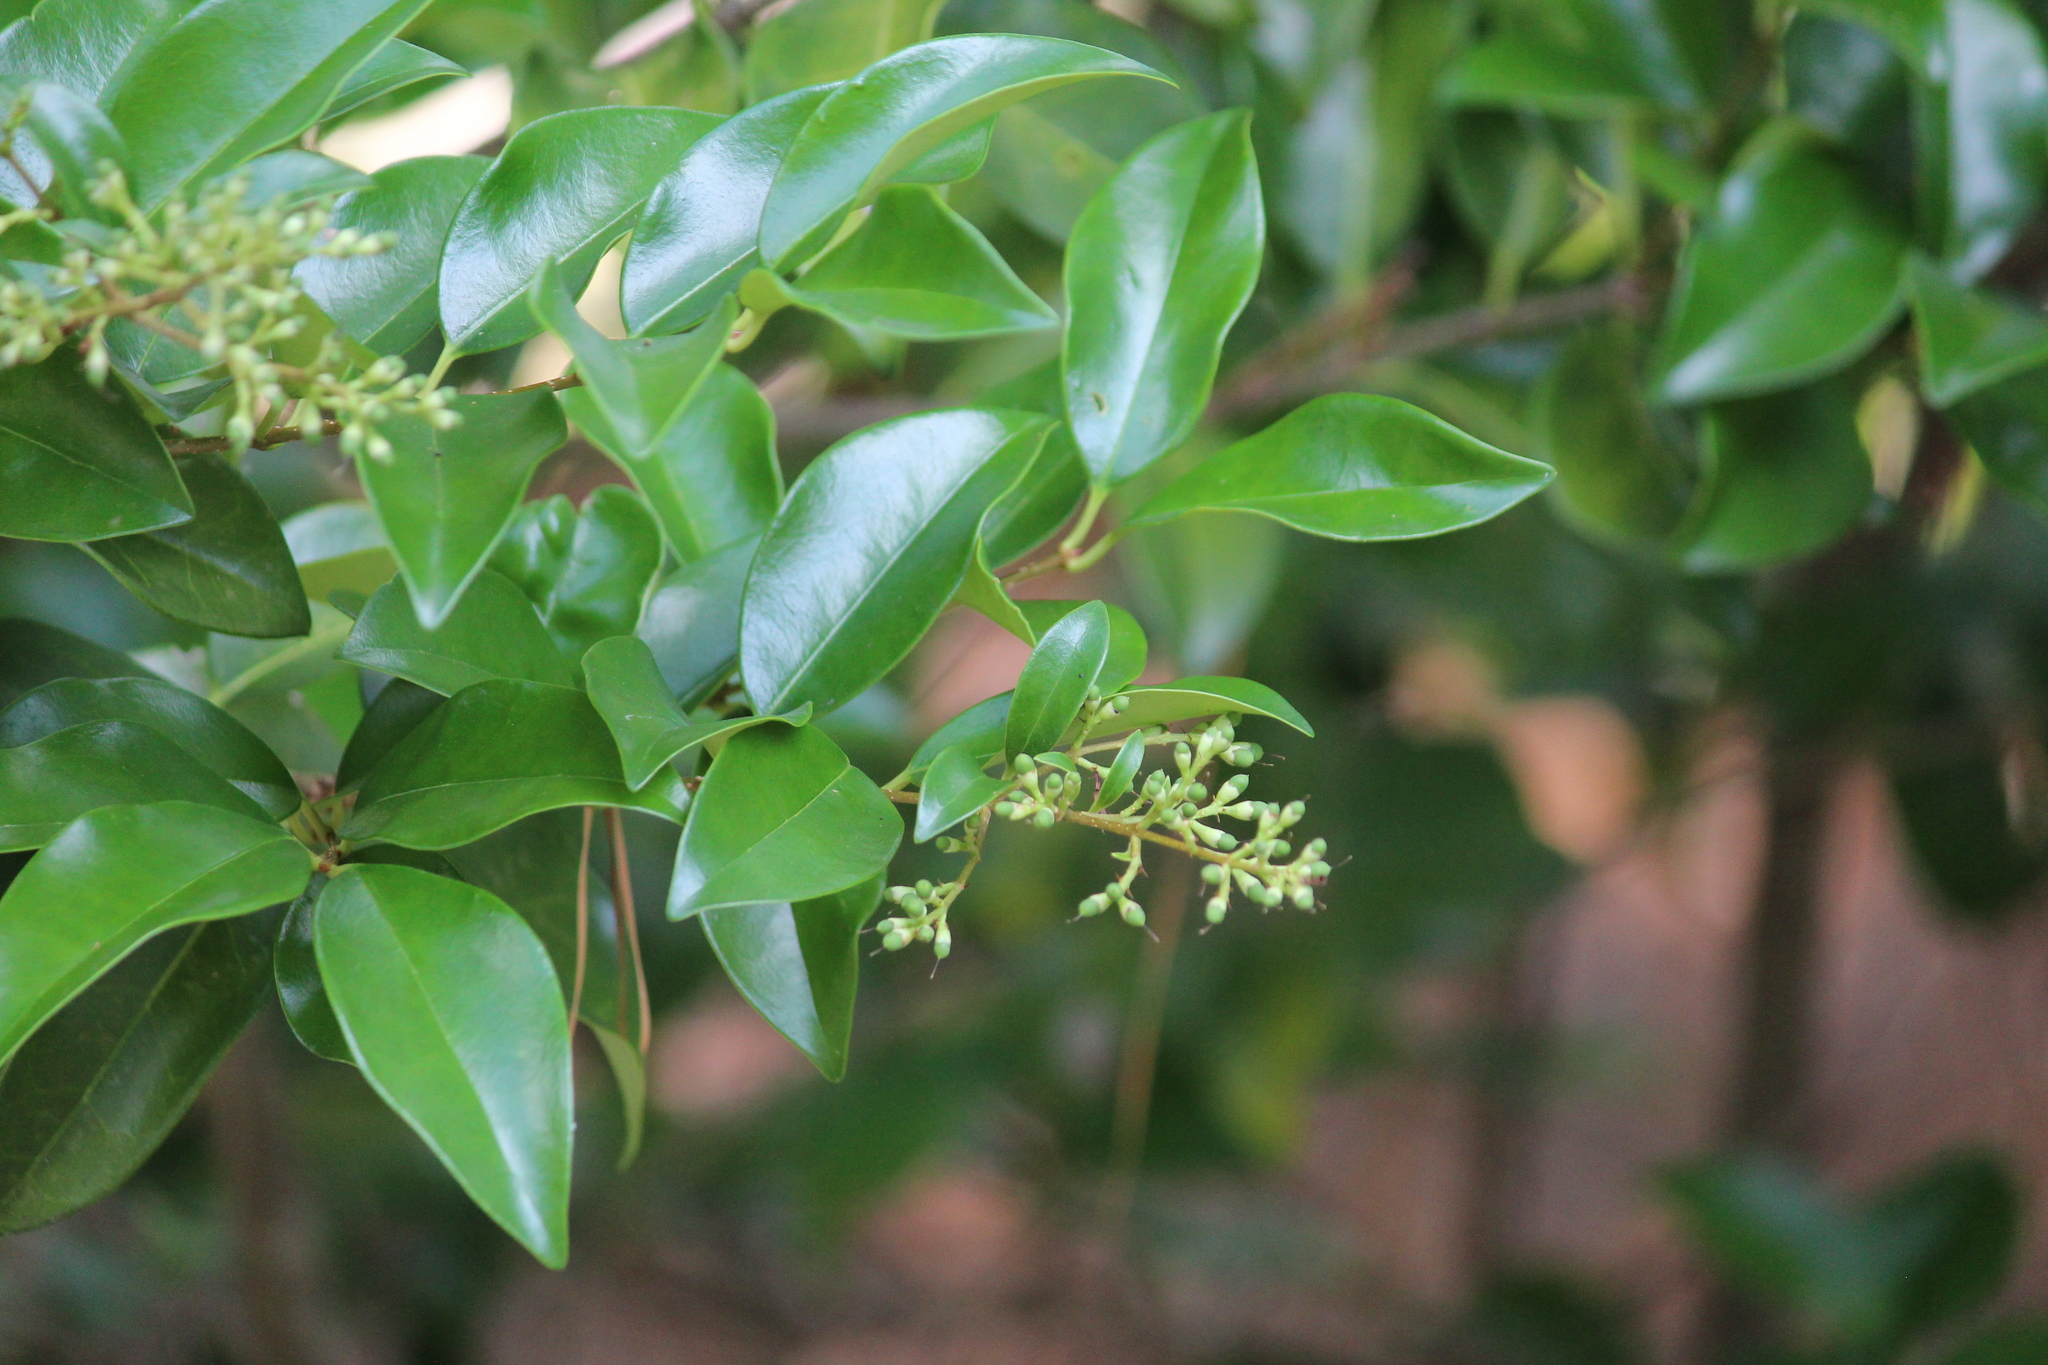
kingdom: Plantae
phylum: Tracheophyta
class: Magnoliopsida
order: Lamiales
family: Oleaceae
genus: Ligustrum
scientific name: Ligustrum japonicum
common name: Japanese privet
